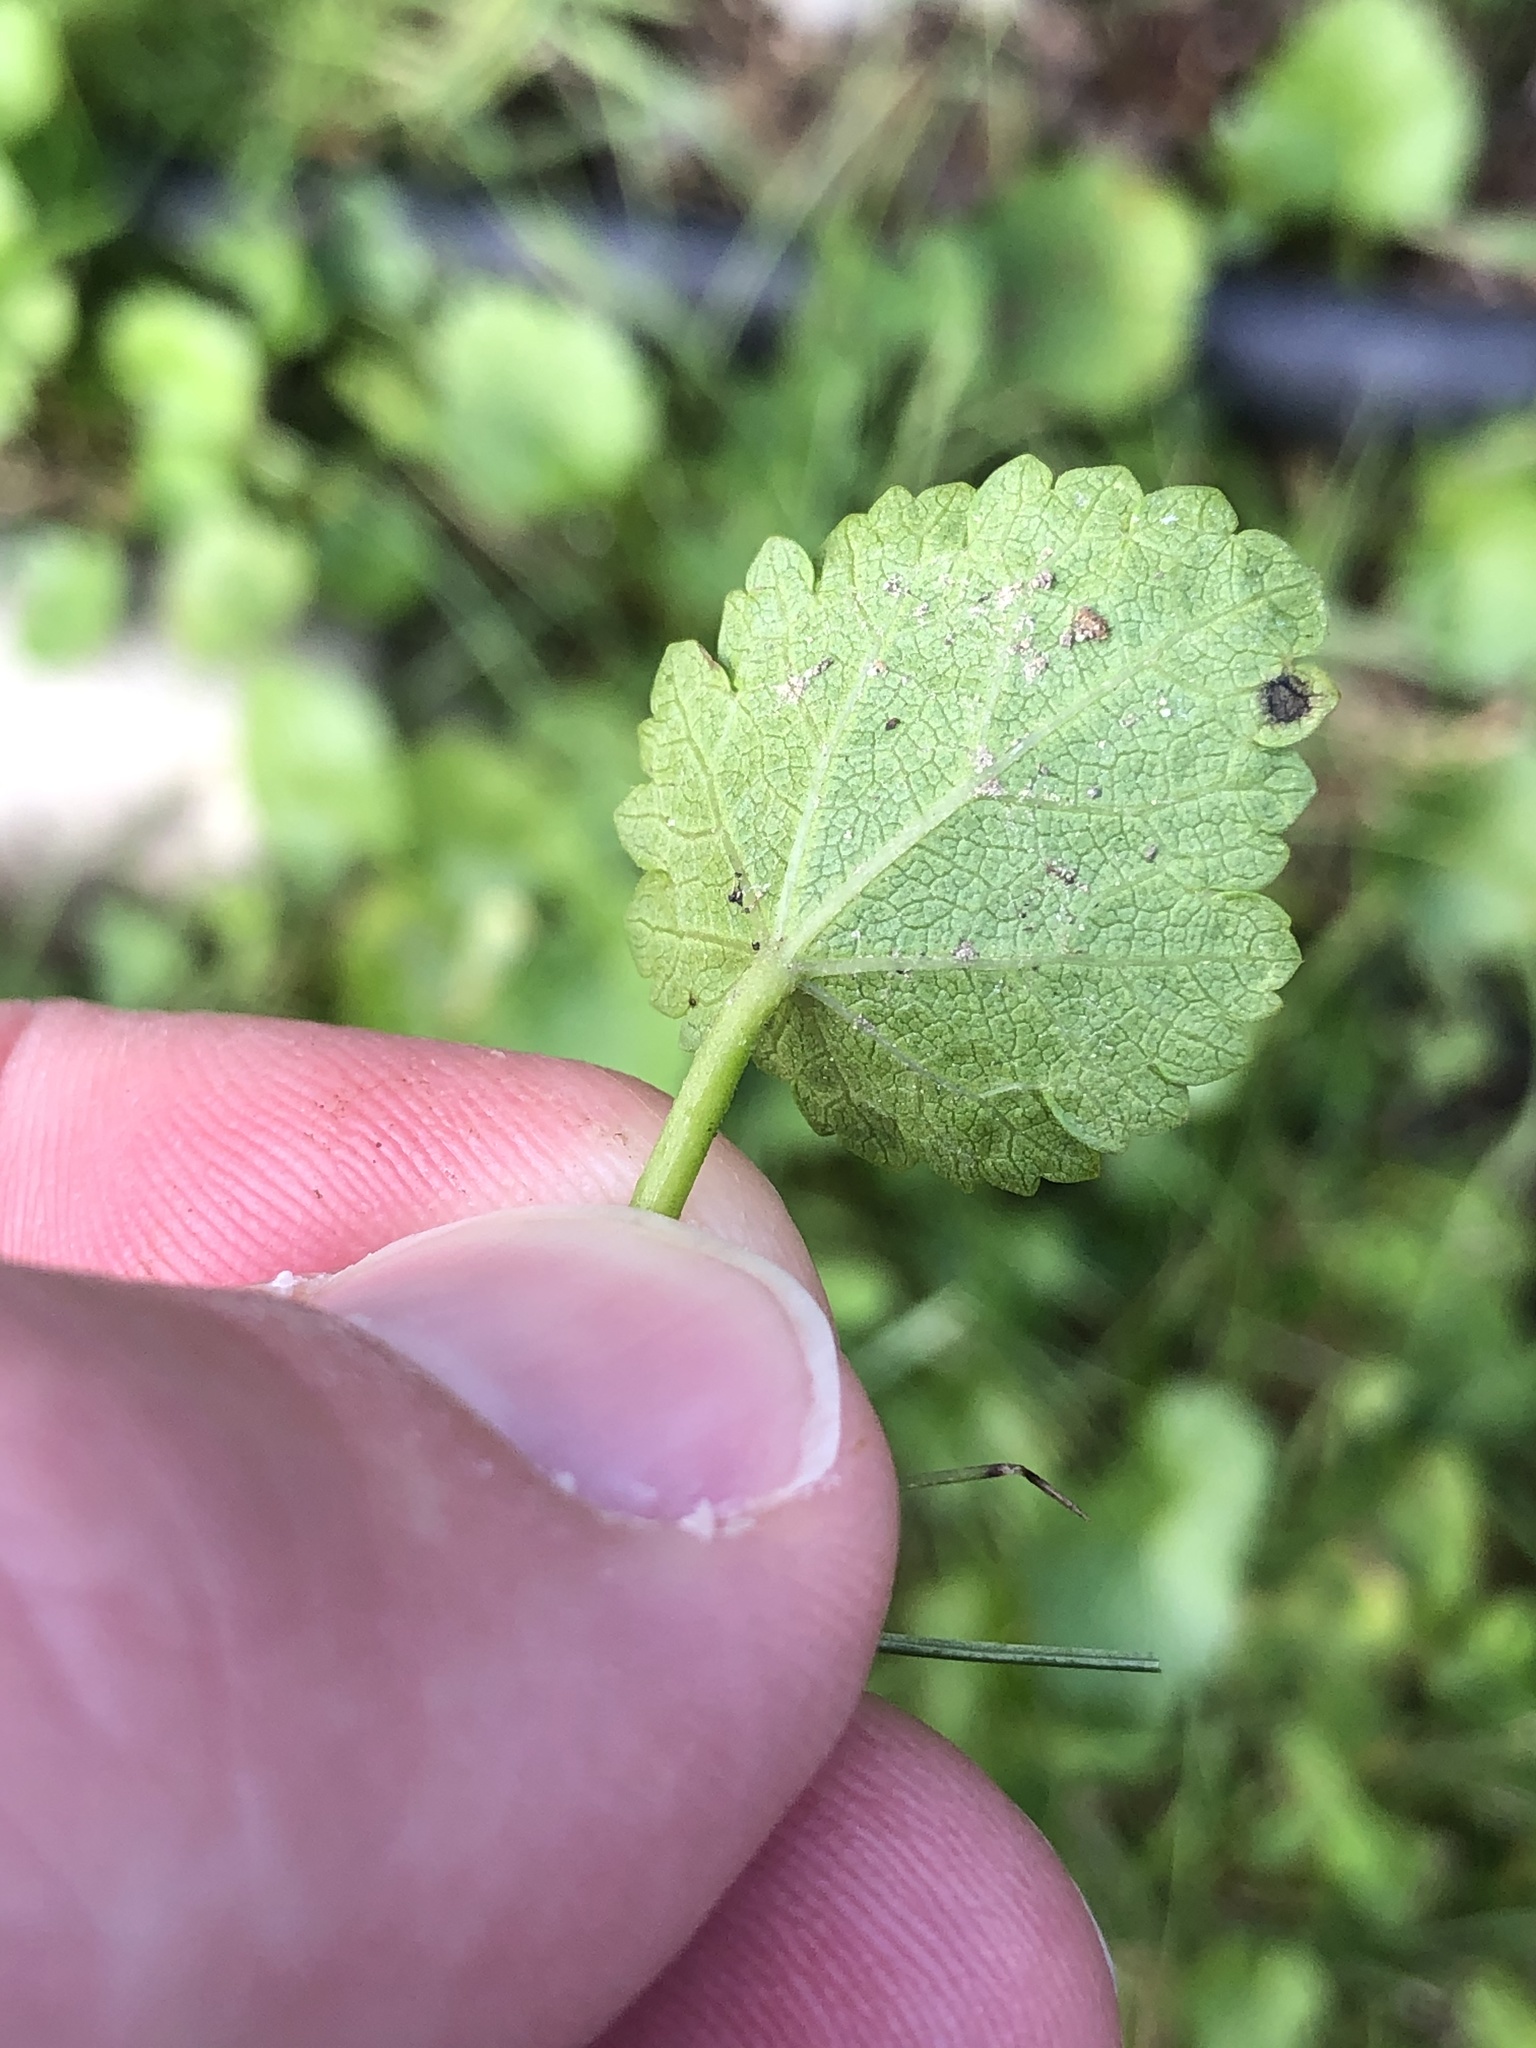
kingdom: Plantae
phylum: Tracheophyta
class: Magnoliopsida
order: Malvales
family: Malvaceae
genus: Modiola
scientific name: Modiola caroliniana
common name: Carolina bristlemallow
